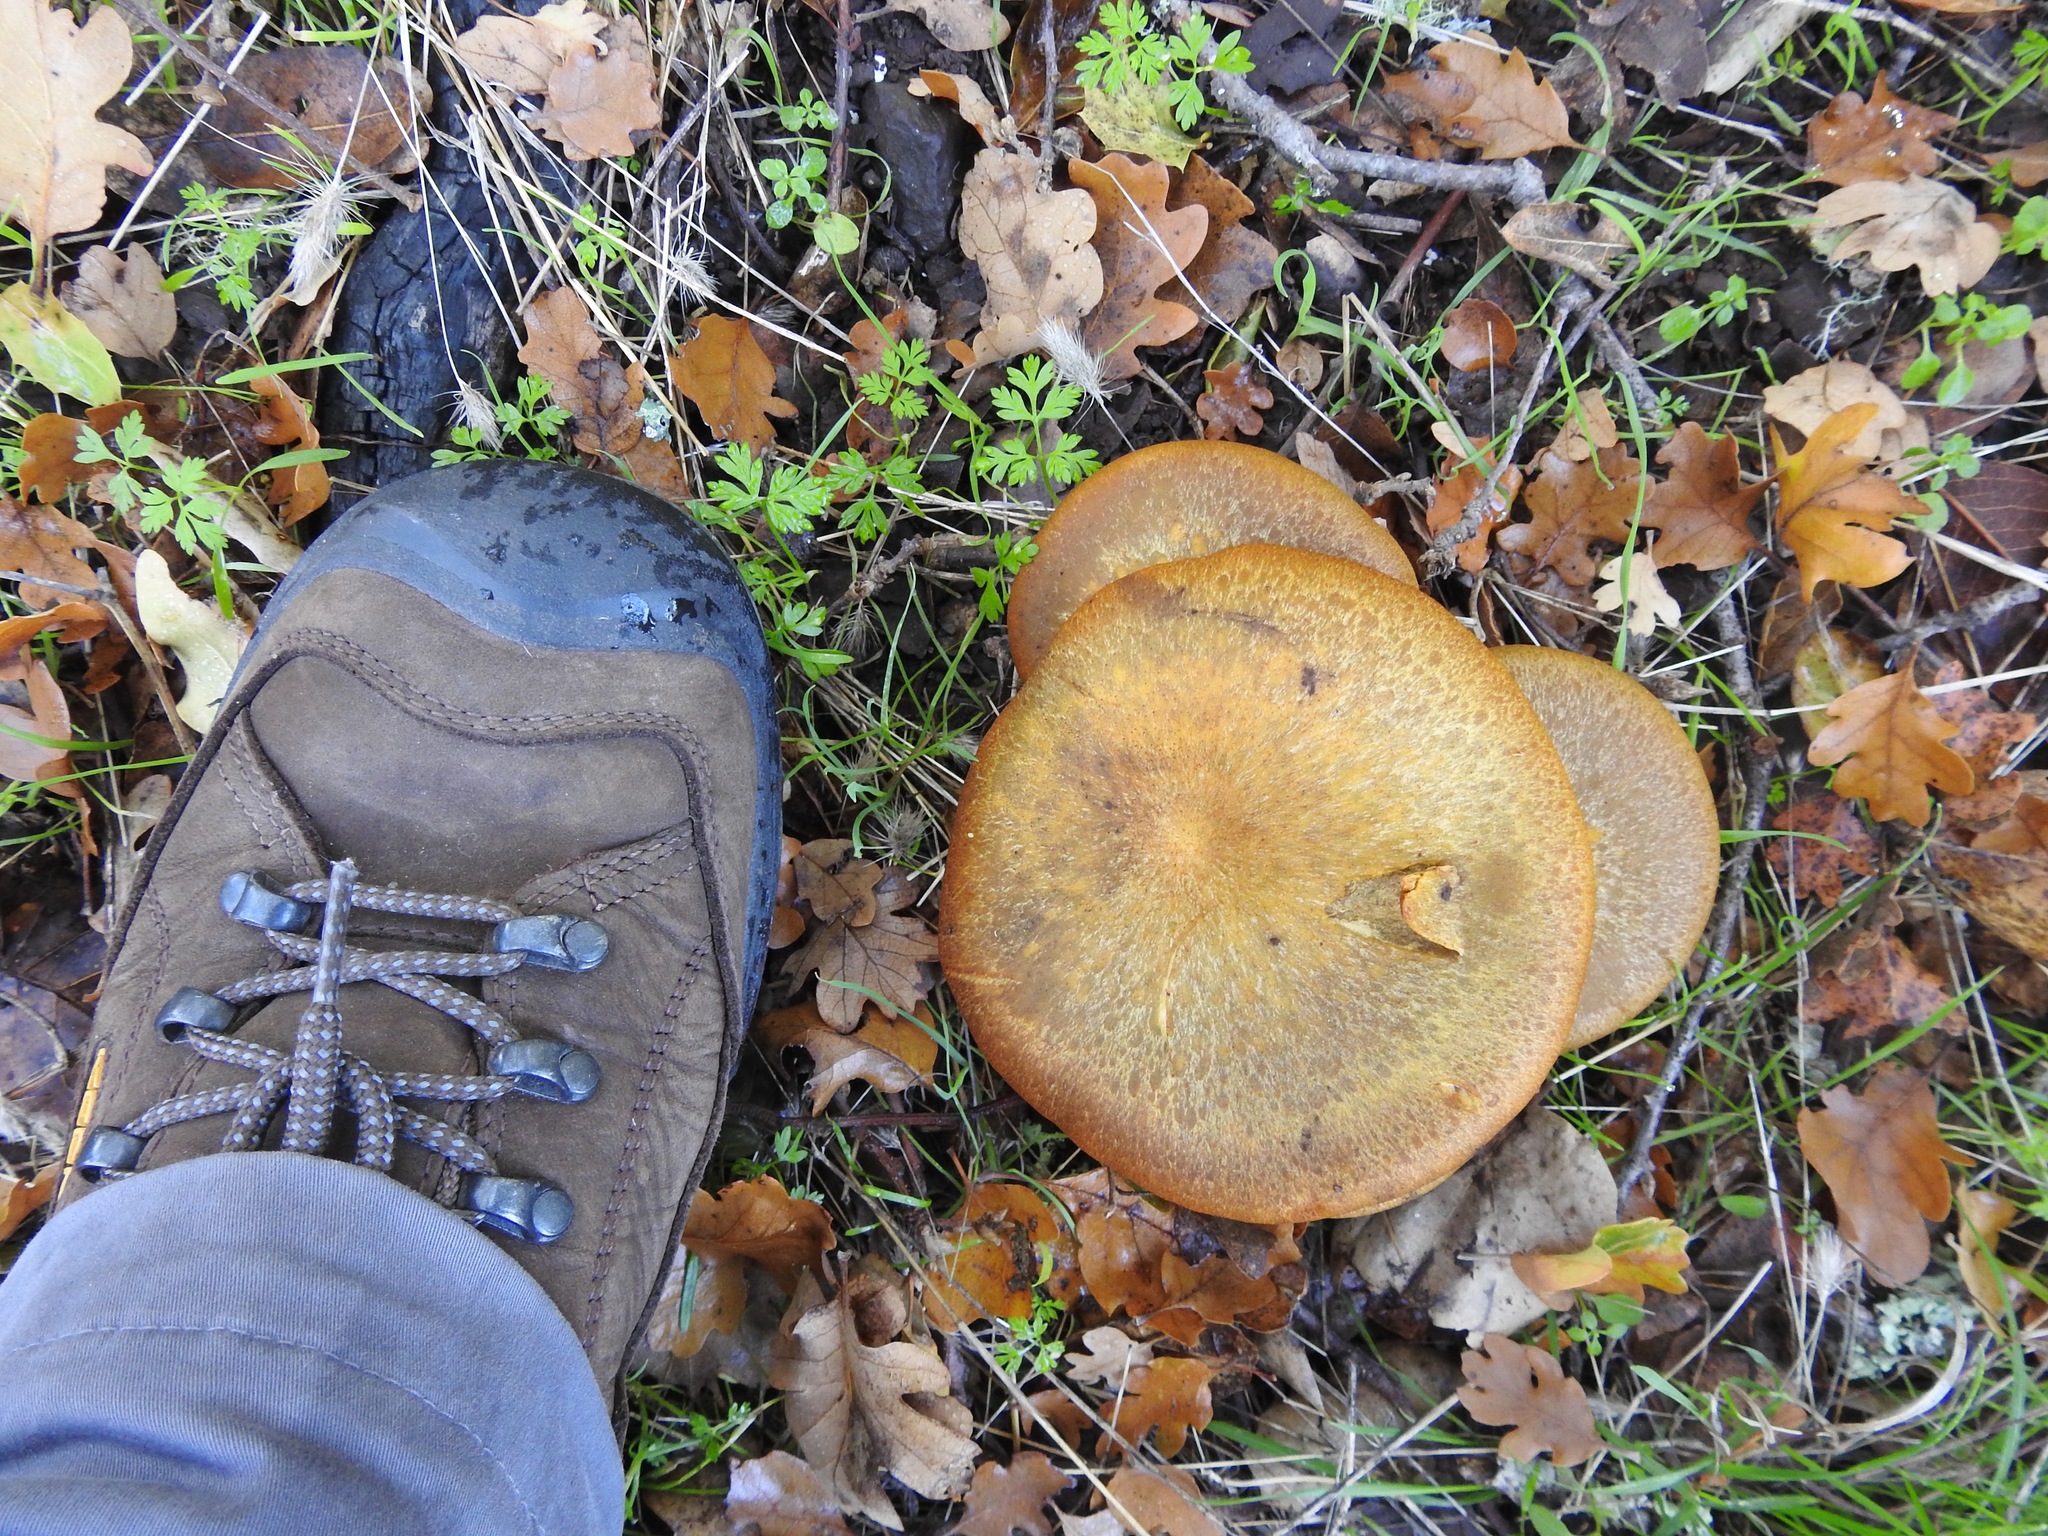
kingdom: Fungi
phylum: Basidiomycota
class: Agaricomycetes
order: Agaricales
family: Omphalotaceae
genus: Omphalotus
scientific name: Omphalotus olivascens
